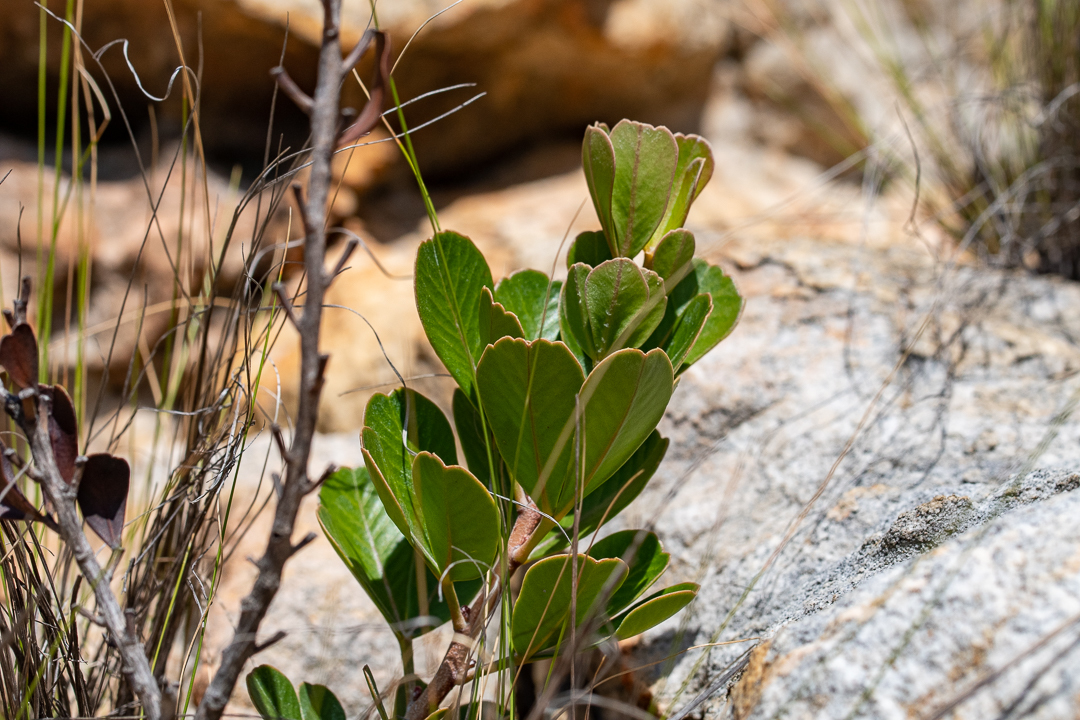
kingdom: Plantae
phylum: Tracheophyta
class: Magnoliopsida
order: Sapindales
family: Anacardiaceae
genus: Searsia
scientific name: Searsia scytophylla
